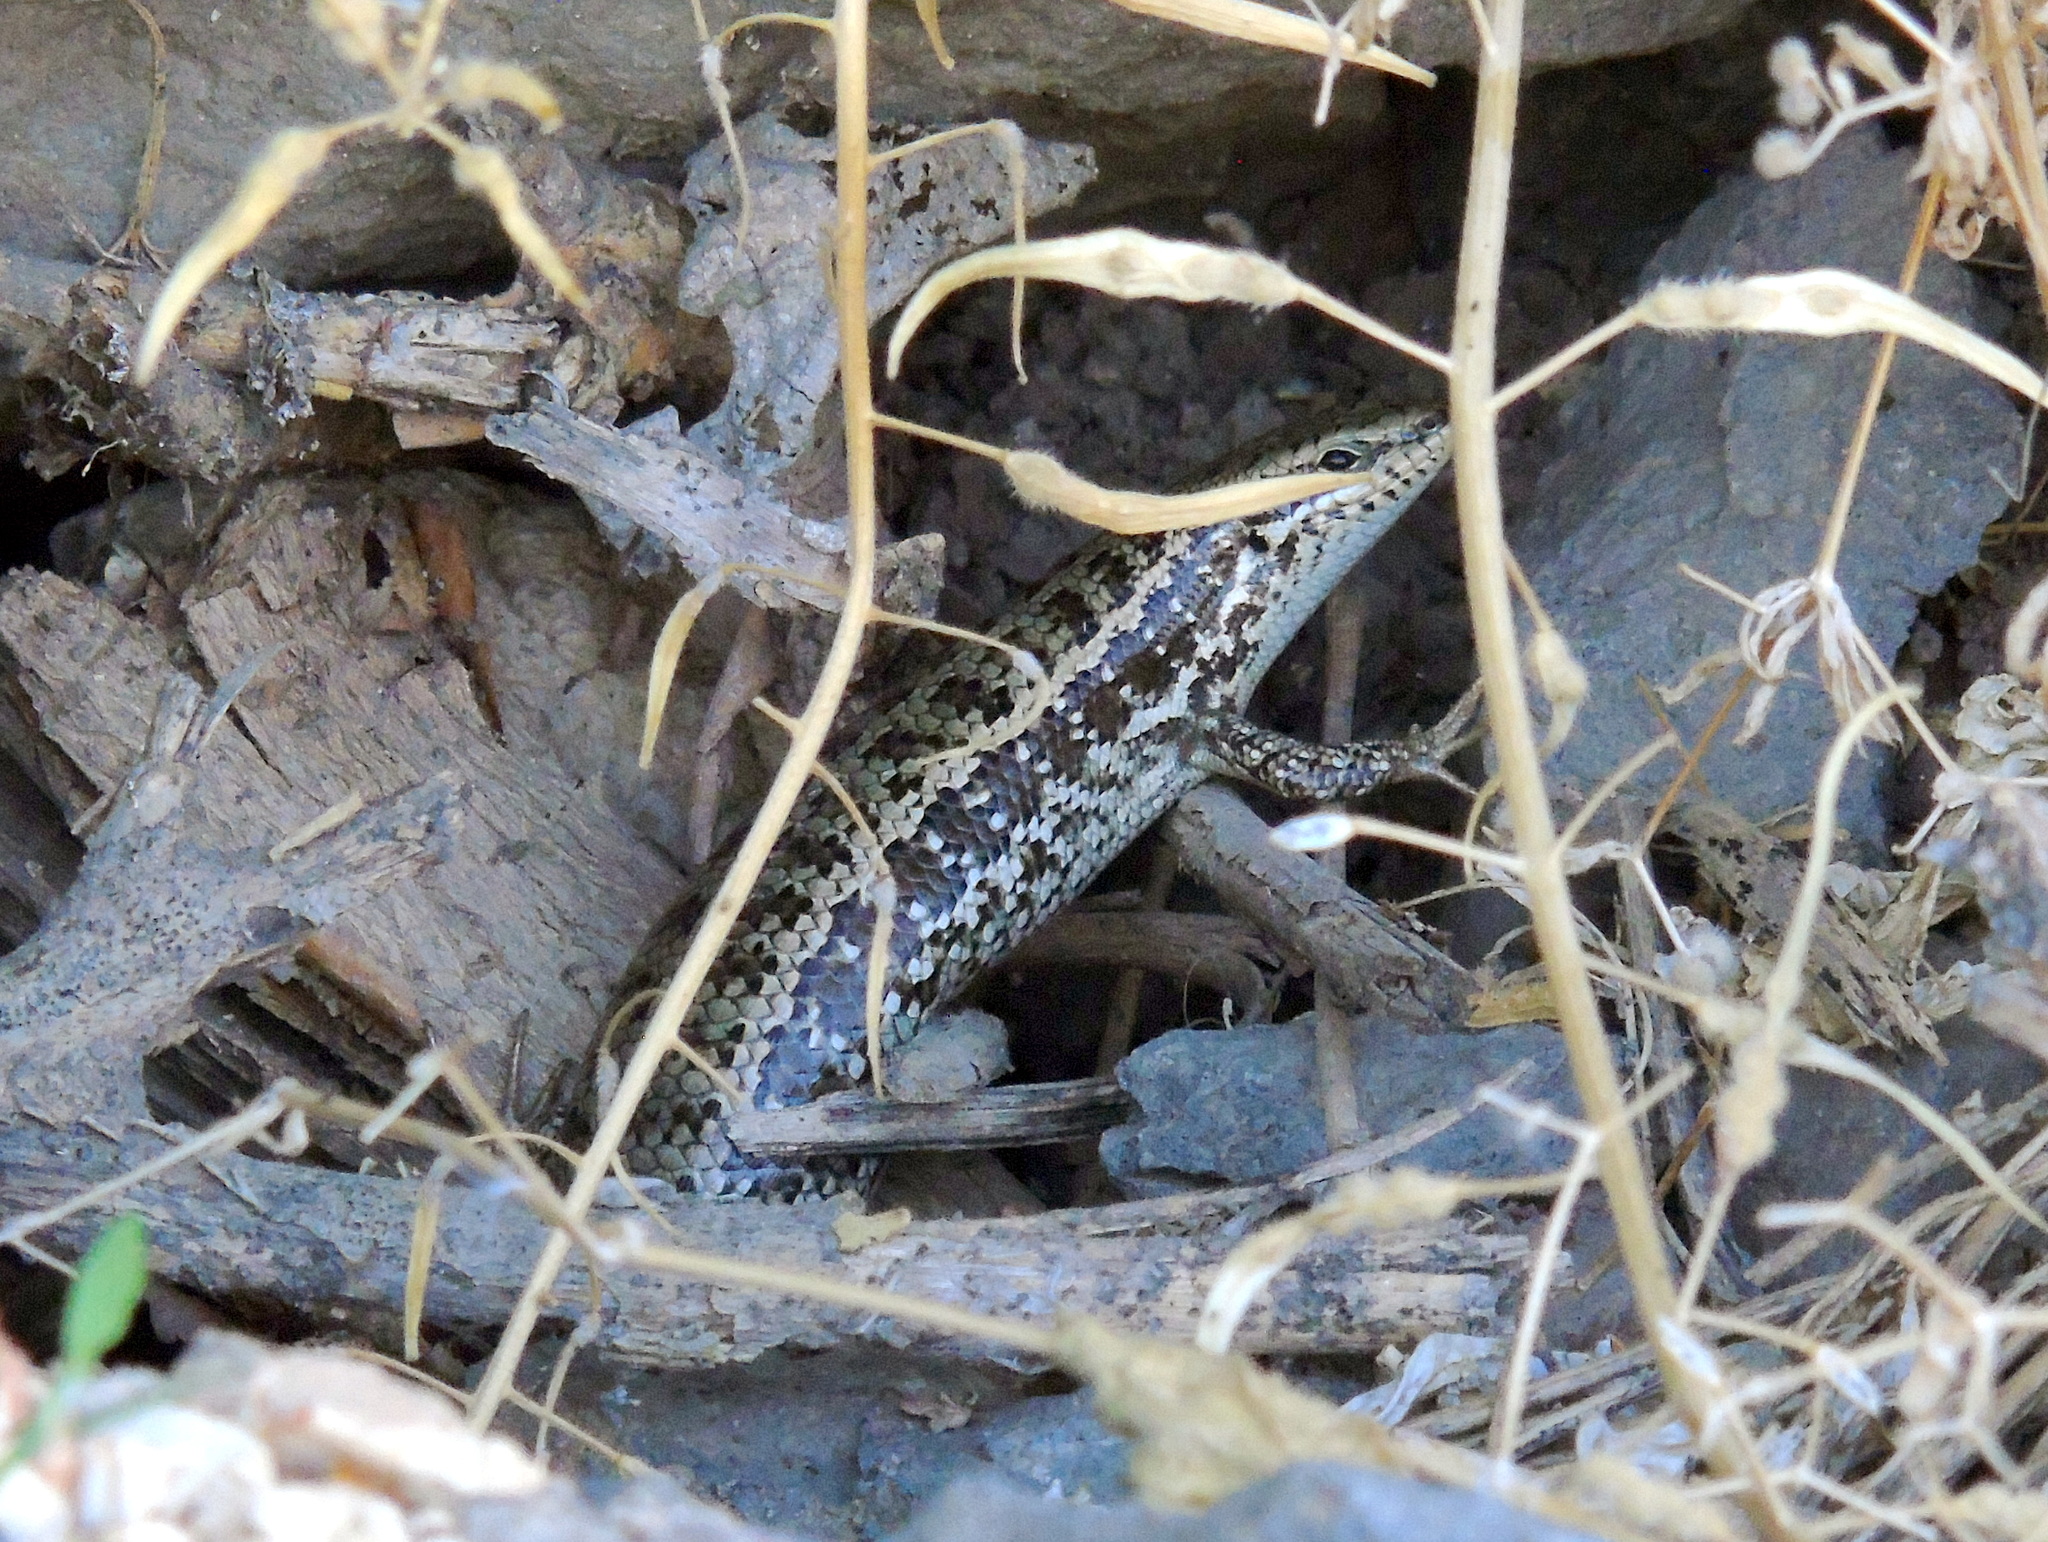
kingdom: Animalia
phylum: Chordata
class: Squamata
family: Scincidae
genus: Heremites
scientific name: Heremites auratus
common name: Golden grass mabuya
